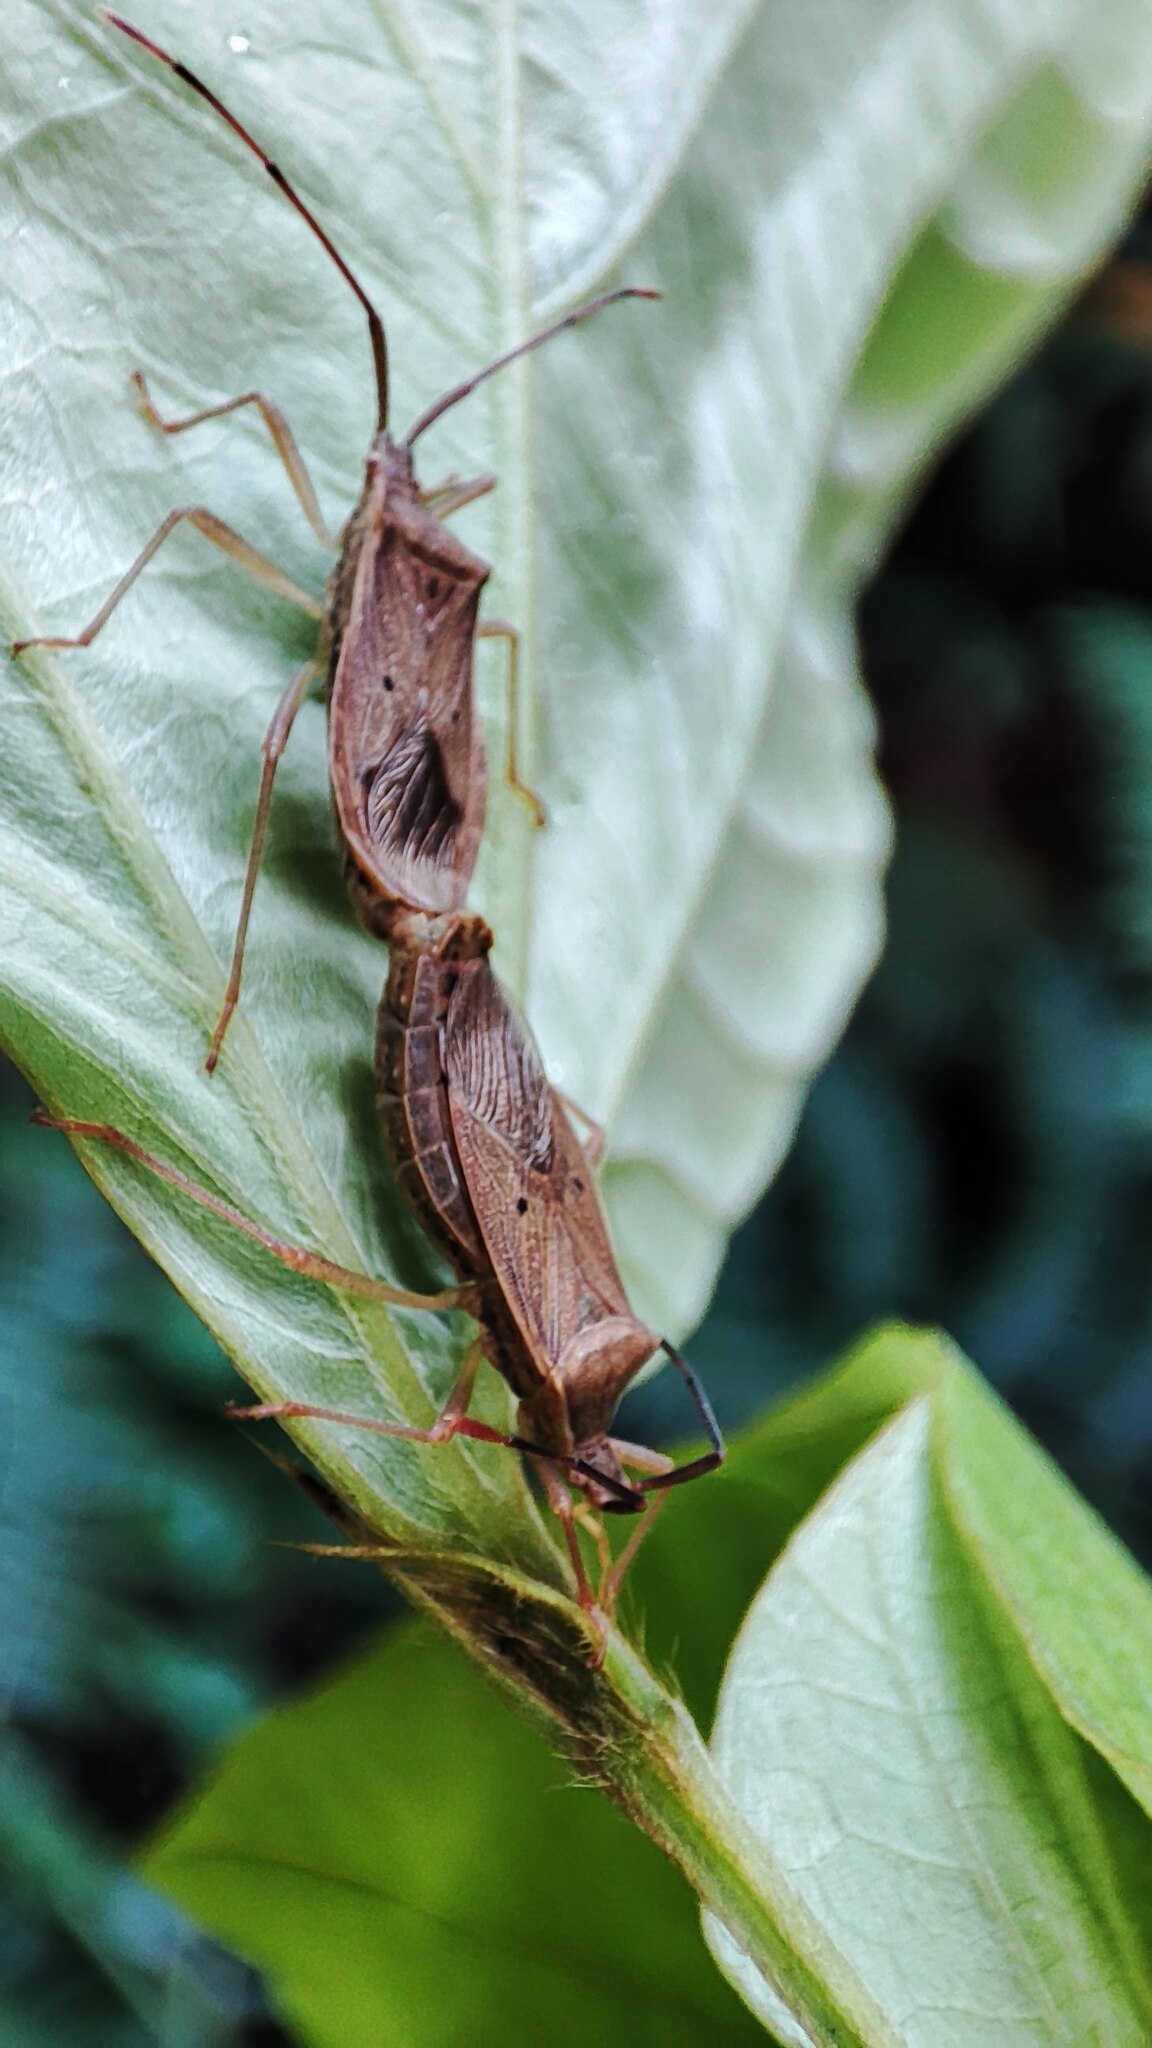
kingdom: Animalia
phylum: Arthropoda
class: Insecta
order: Hemiptera
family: Coreidae
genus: Homoeocerus
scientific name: Homoeocerus unipunctatus
